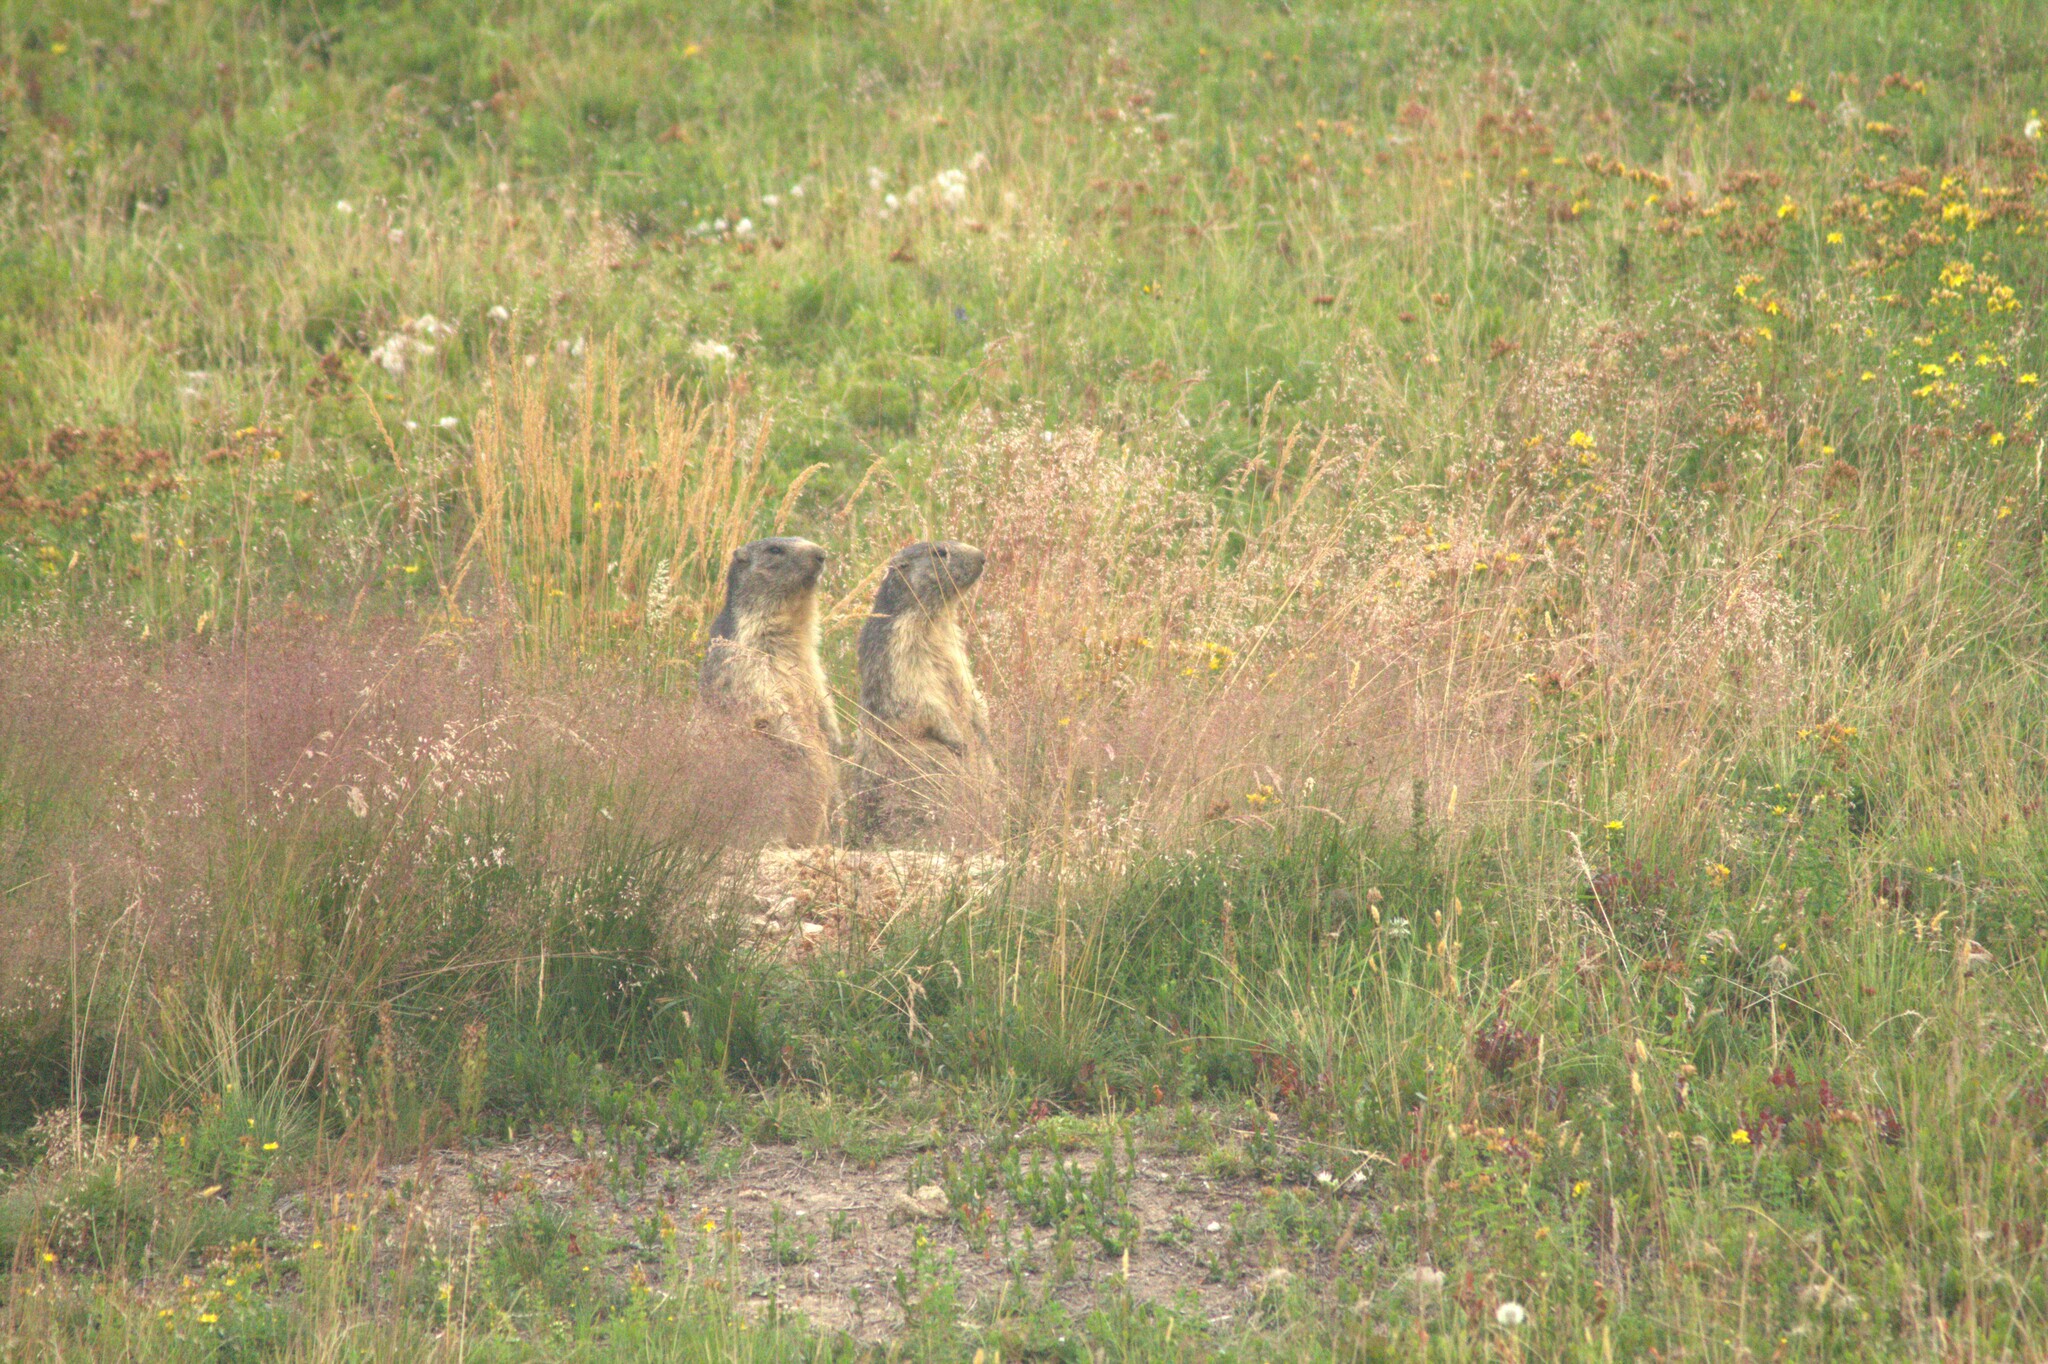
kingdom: Animalia
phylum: Chordata
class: Mammalia
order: Rodentia
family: Sciuridae
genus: Marmota
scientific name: Marmota marmota
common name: Alpine marmot
